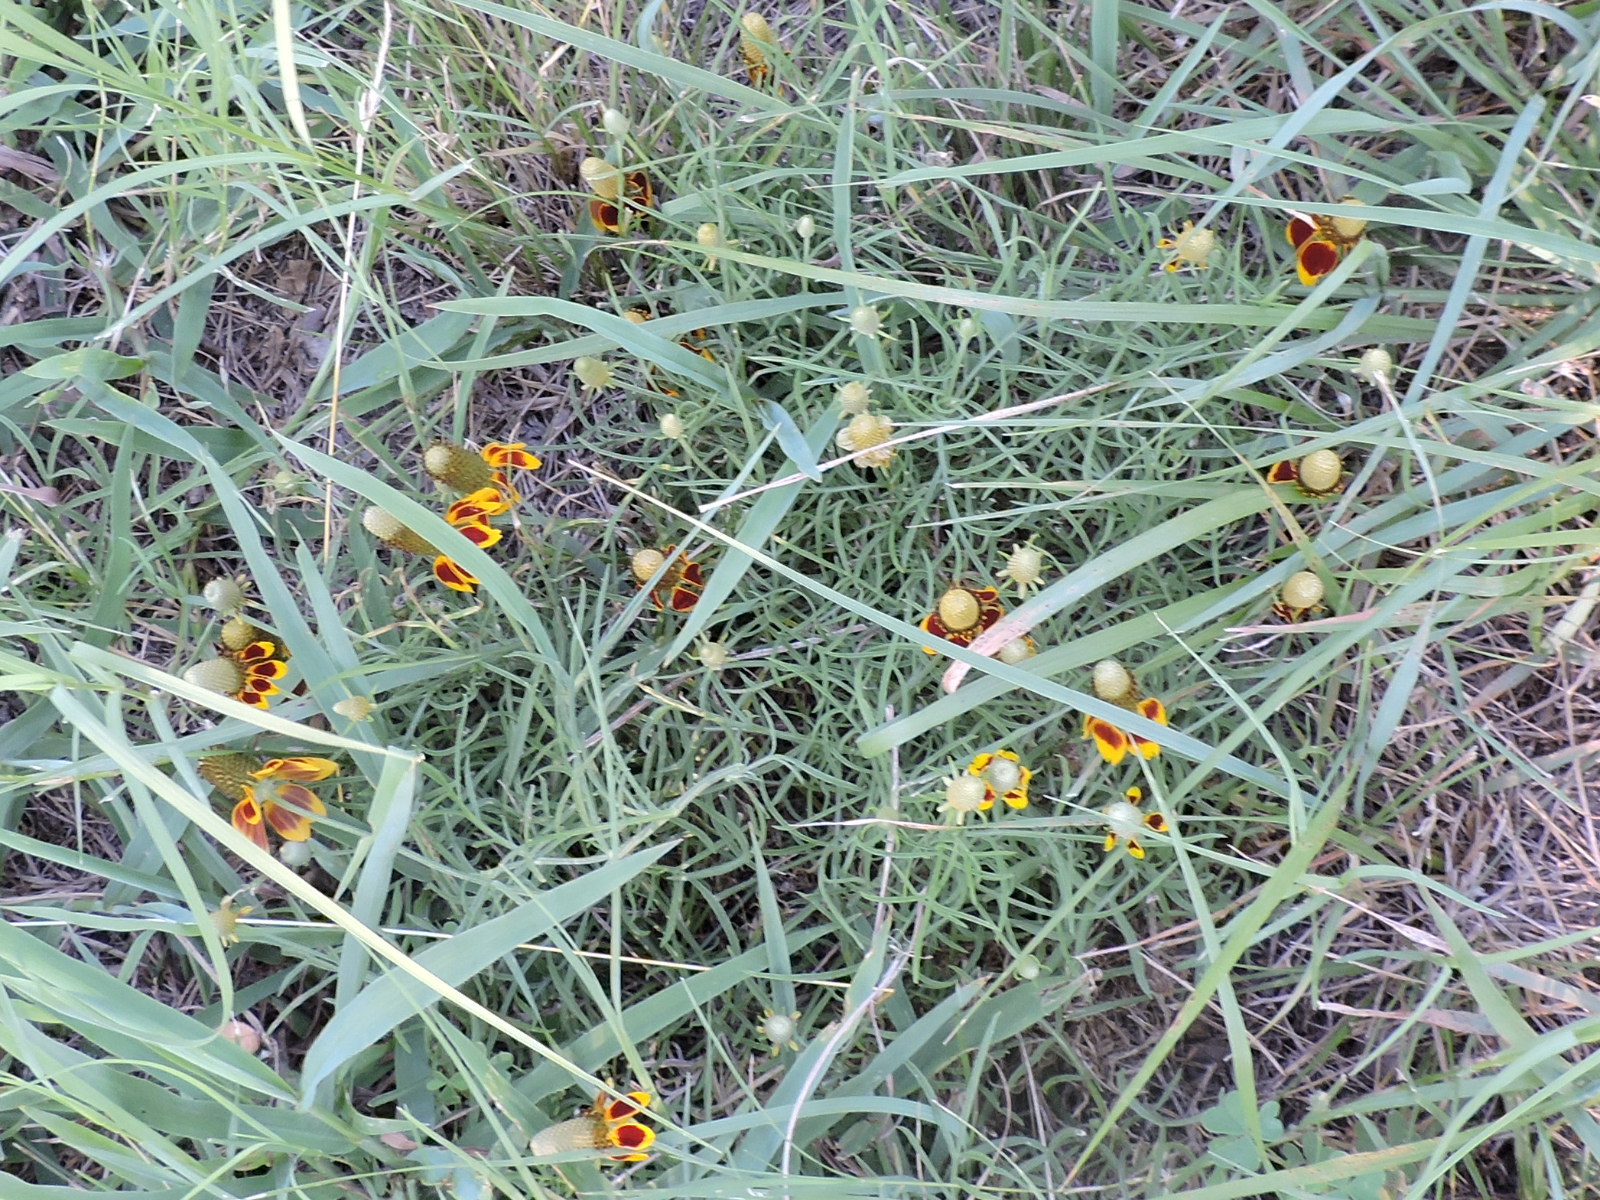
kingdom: Plantae
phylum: Tracheophyta
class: Magnoliopsida
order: Asterales
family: Asteraceae
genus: Ratibida
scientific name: Ratibida columnifera
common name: Prairie coneflower
